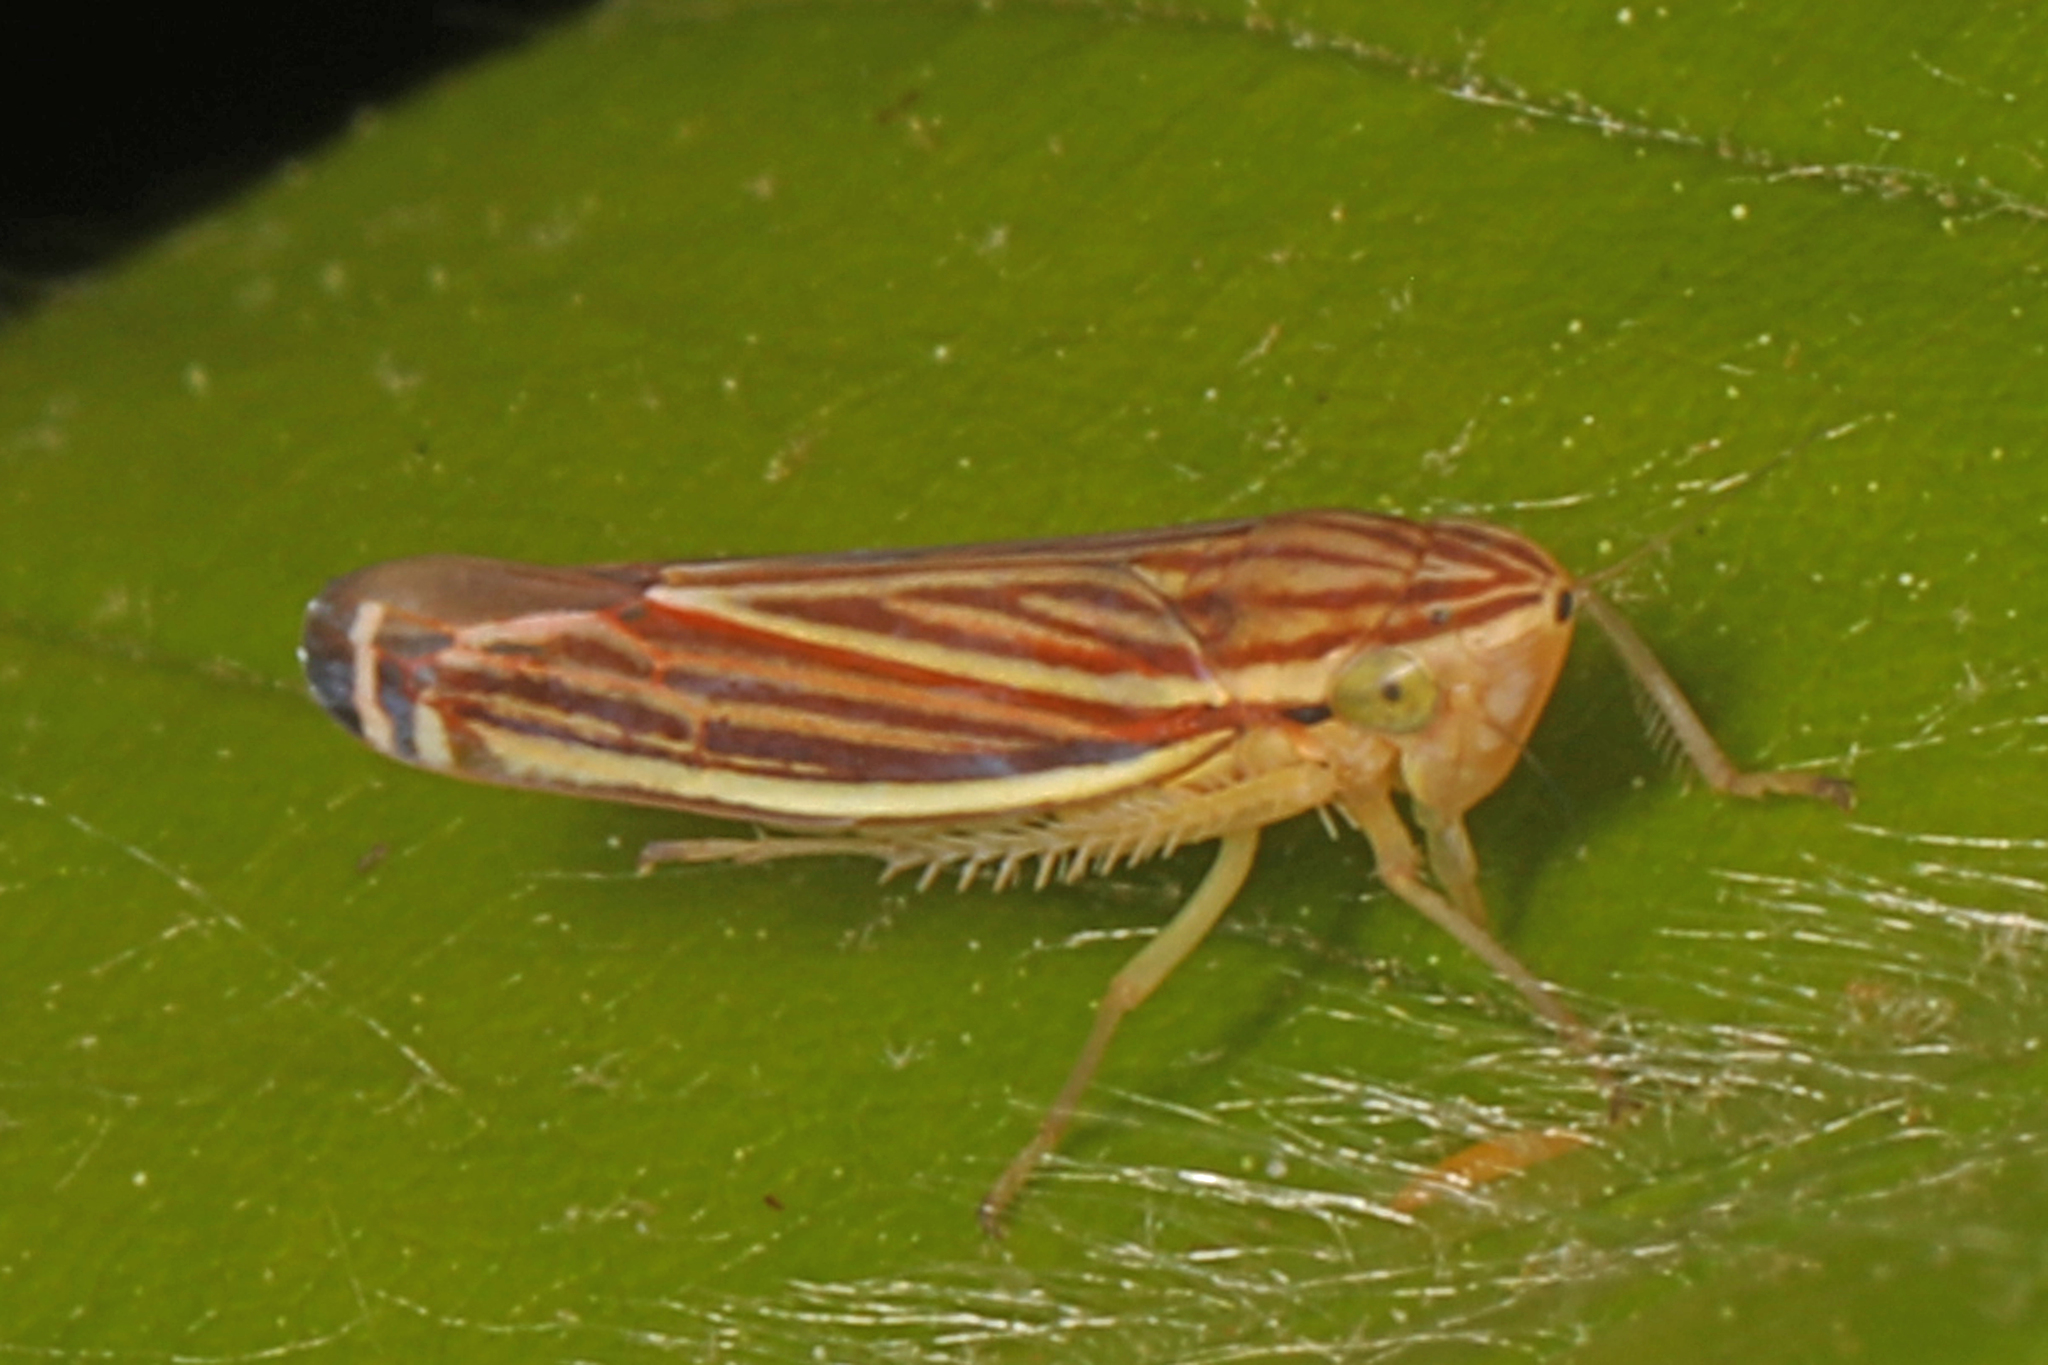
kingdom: Animalia
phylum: Arthropoda
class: Insecta
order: Hemiptera
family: Cicadellidae
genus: Sibovia
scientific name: Sibovia occatoria
